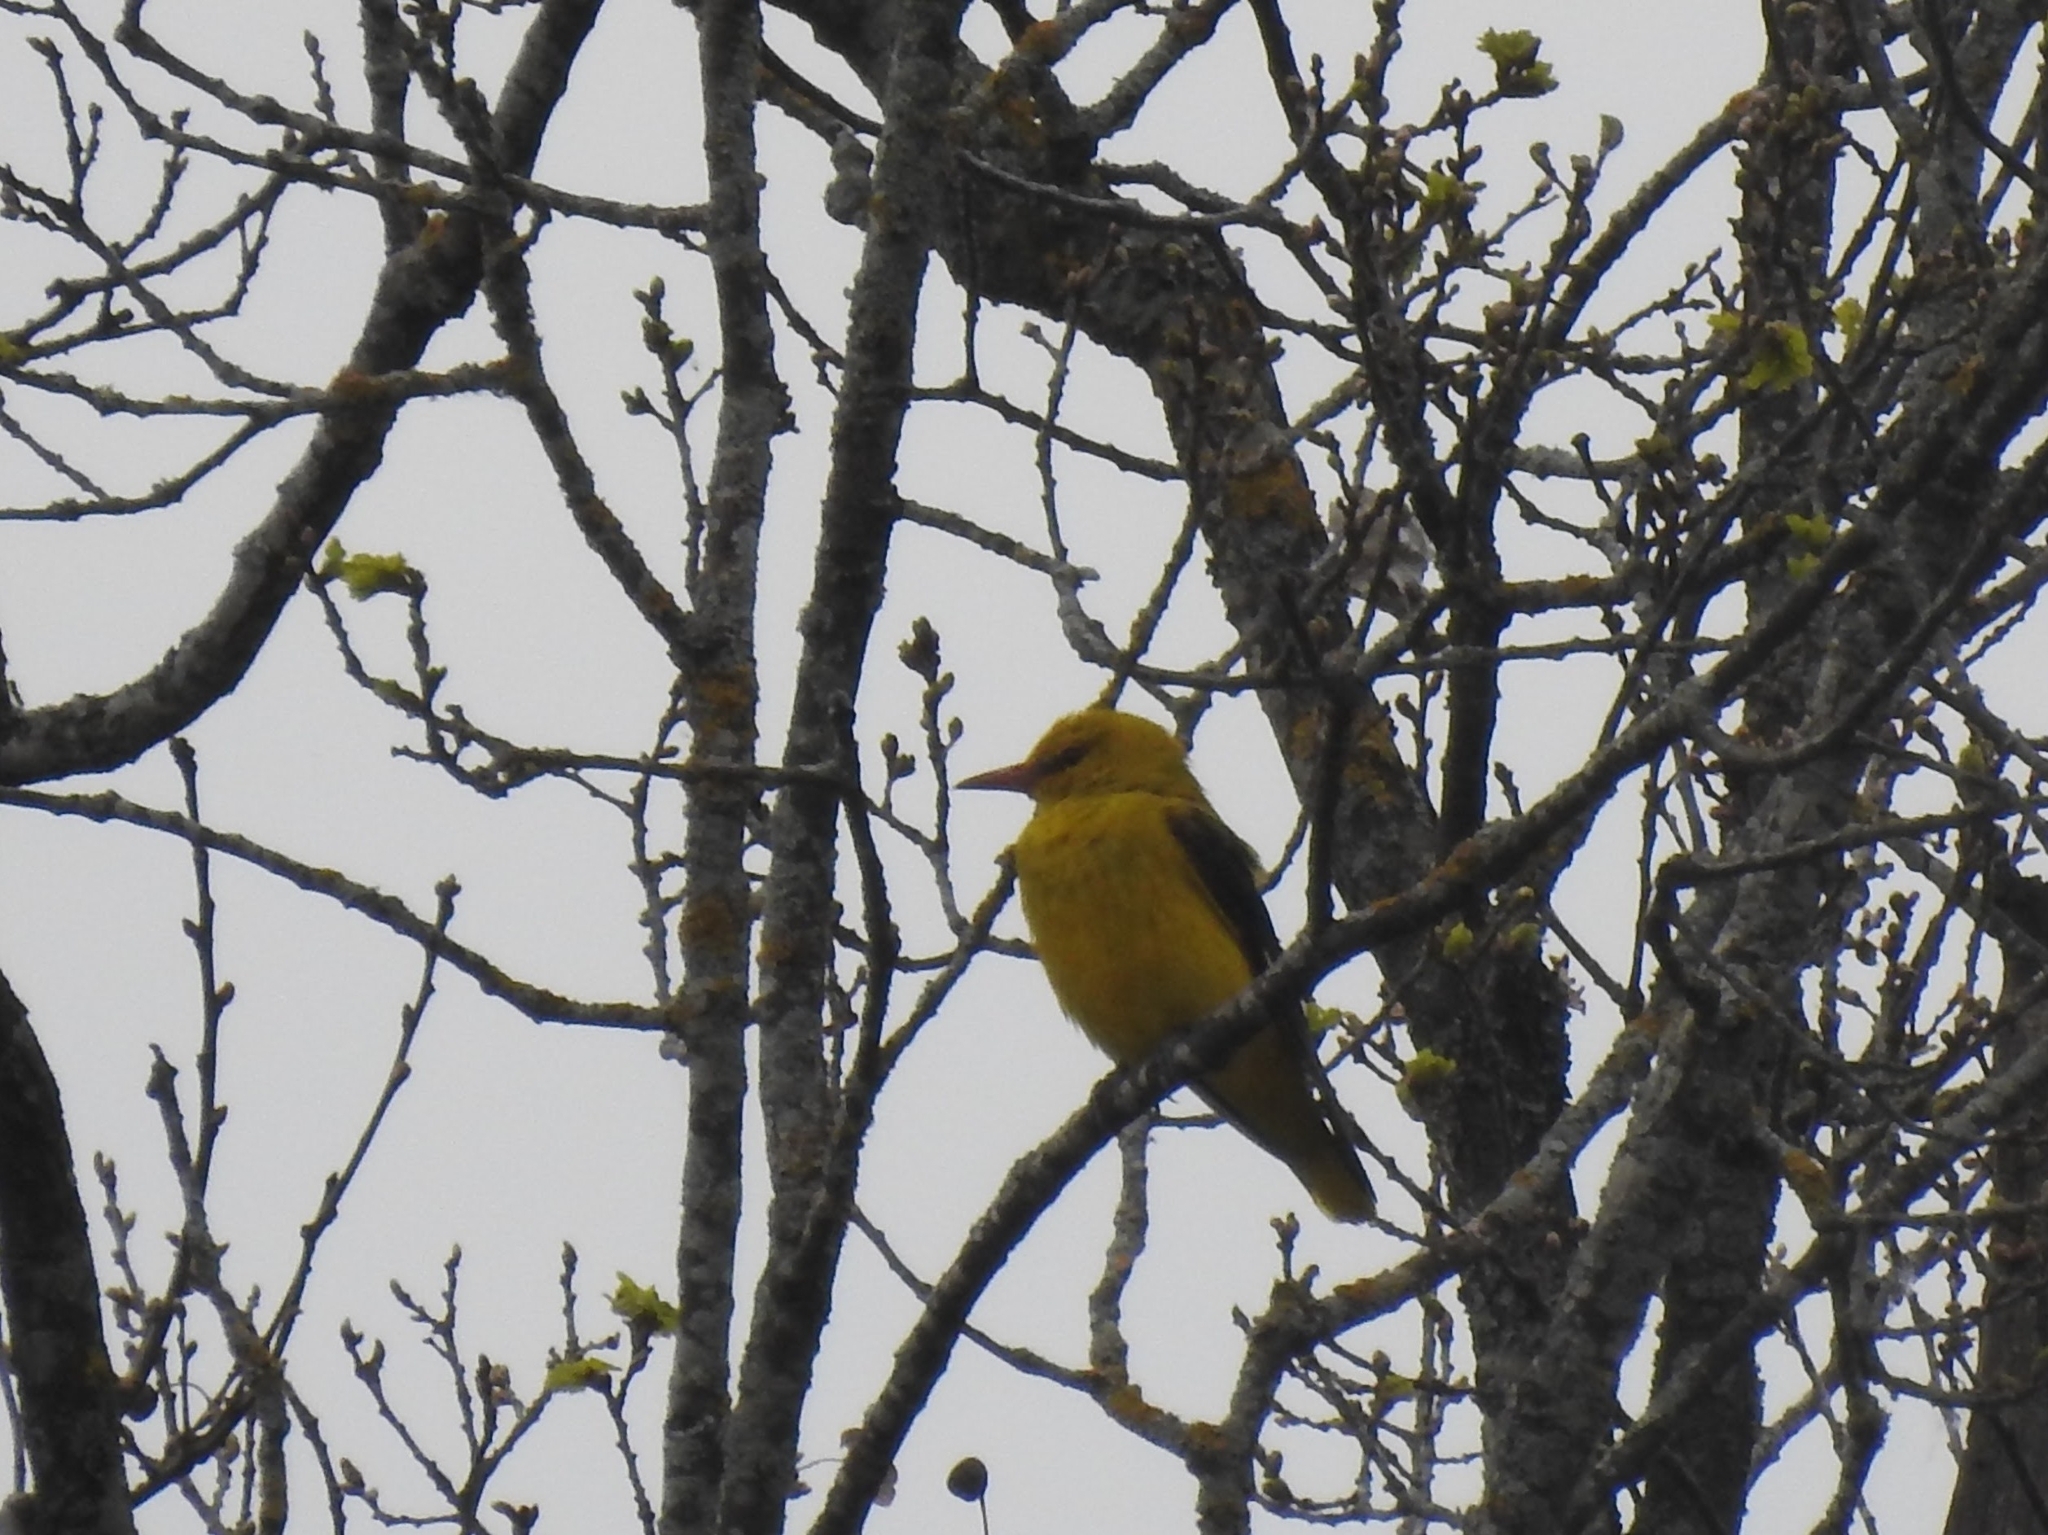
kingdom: Animalia
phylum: Chordata
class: Aves
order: Passeriformes
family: Oriolidae
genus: Oriolus
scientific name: Oriolus oriolus
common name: Eurasian golden oriole
